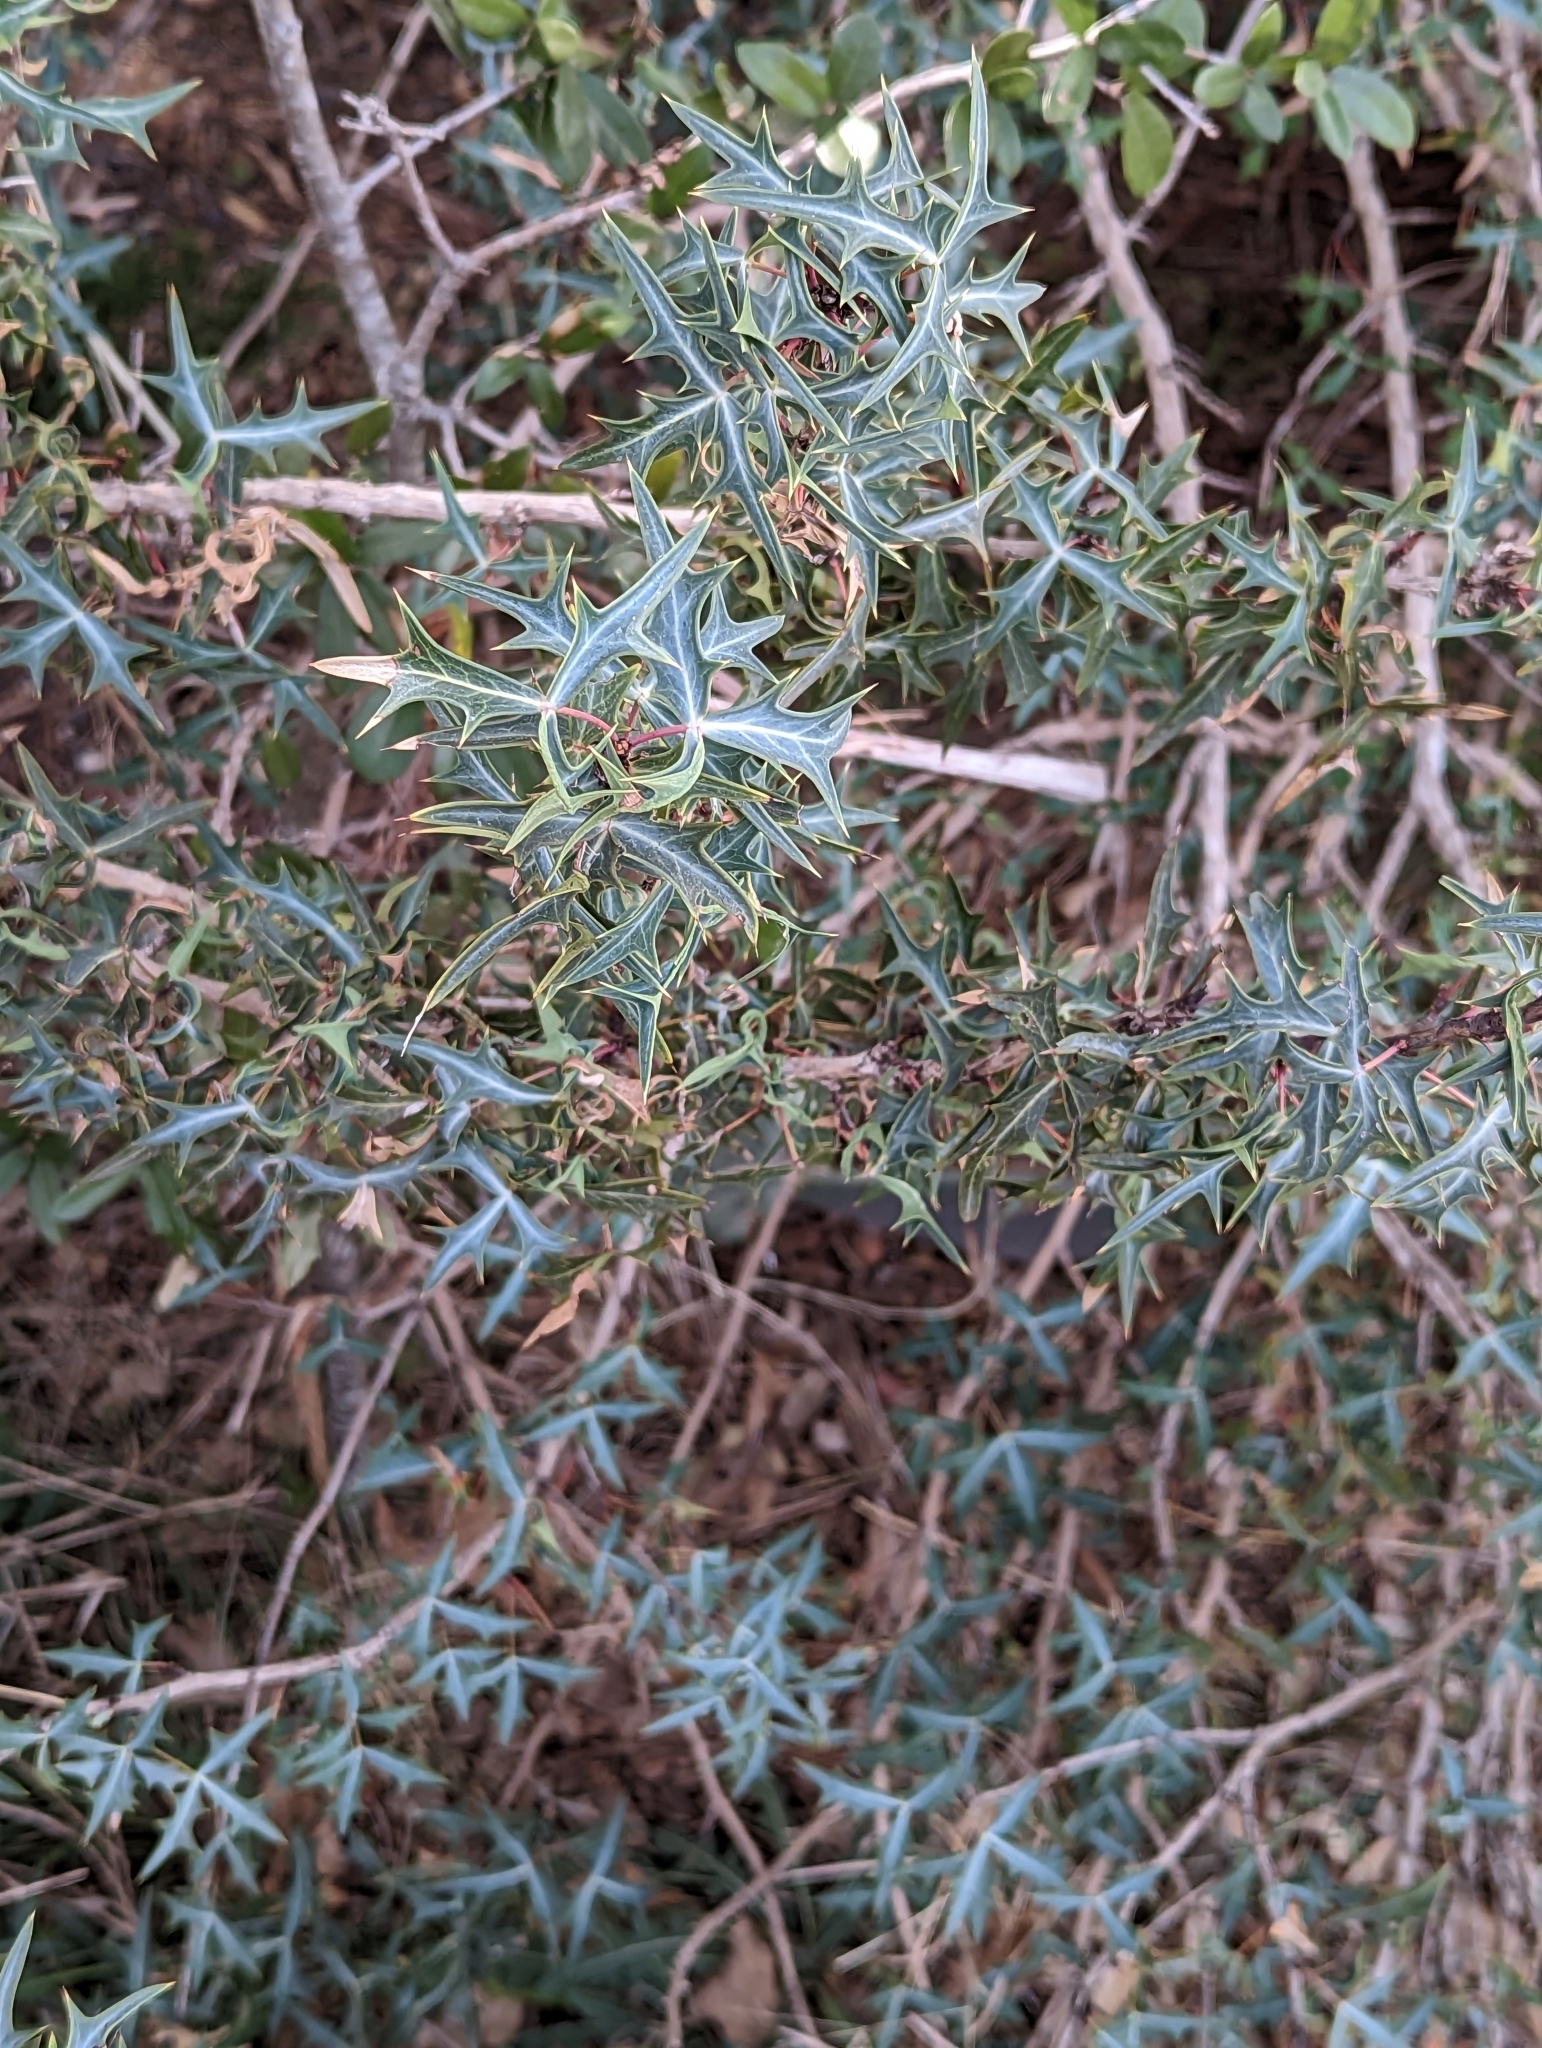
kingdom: Plantae
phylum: Tracheophyta
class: Magnoliopsida
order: Ranunculales
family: Berberidaceae
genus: Alloberberis
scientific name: Alloberberis trifoliolata
